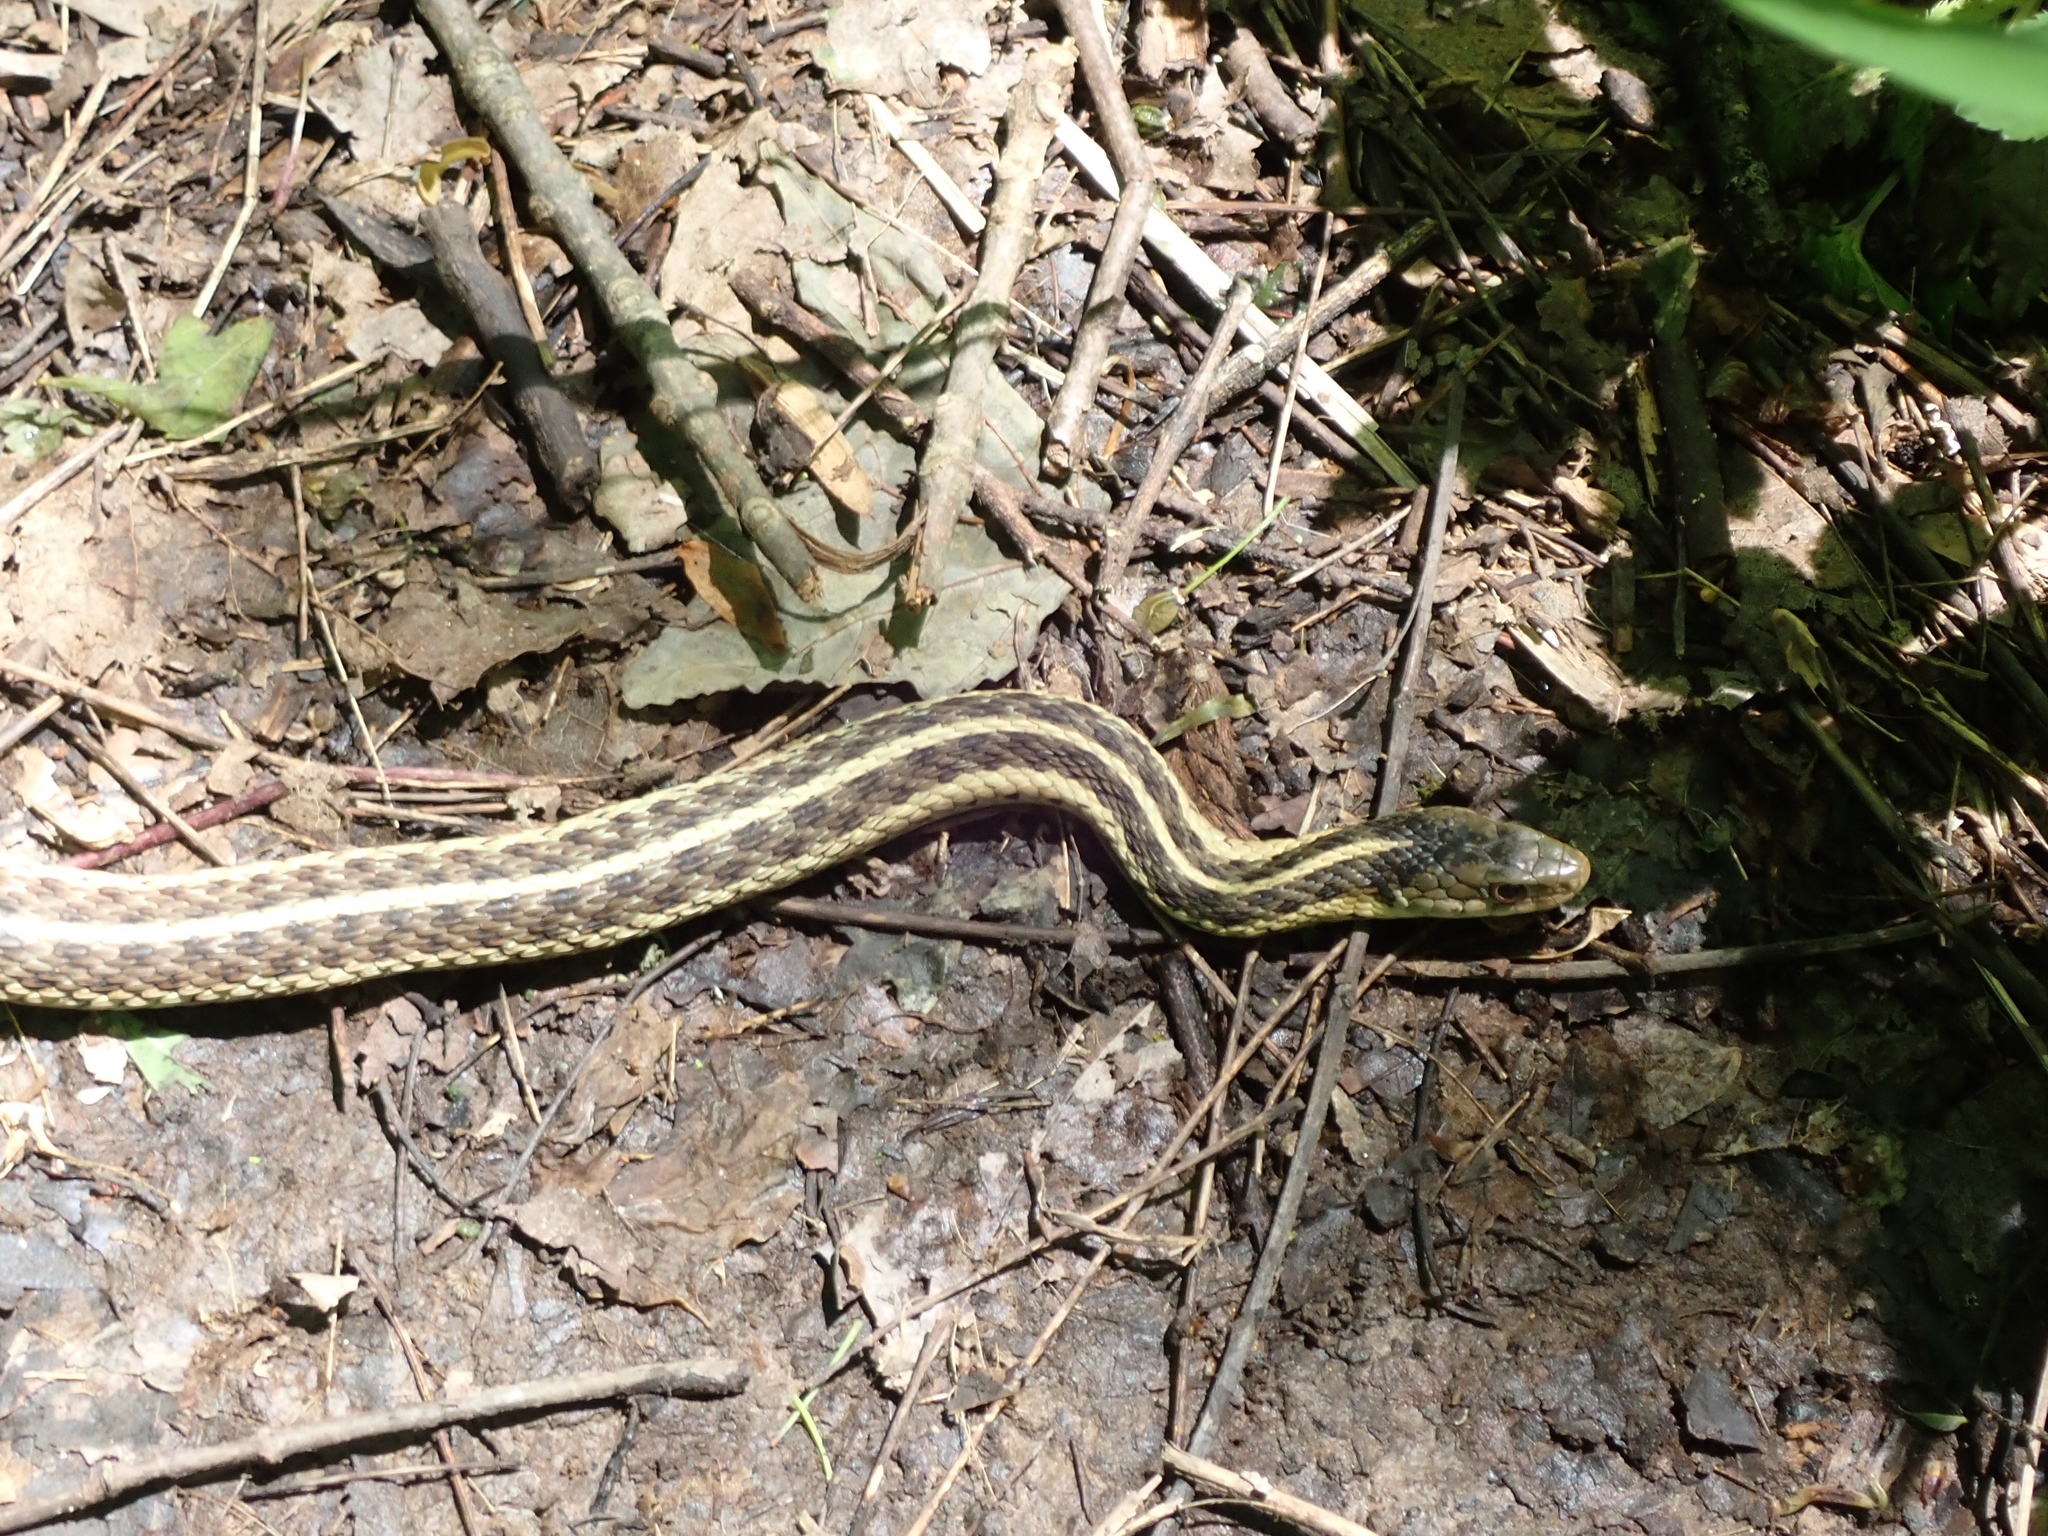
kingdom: Animalia
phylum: Chordata
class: Squamata
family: Colubridae
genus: Thamnophis
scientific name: Thamnophis sirtalis
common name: Common garter snake
